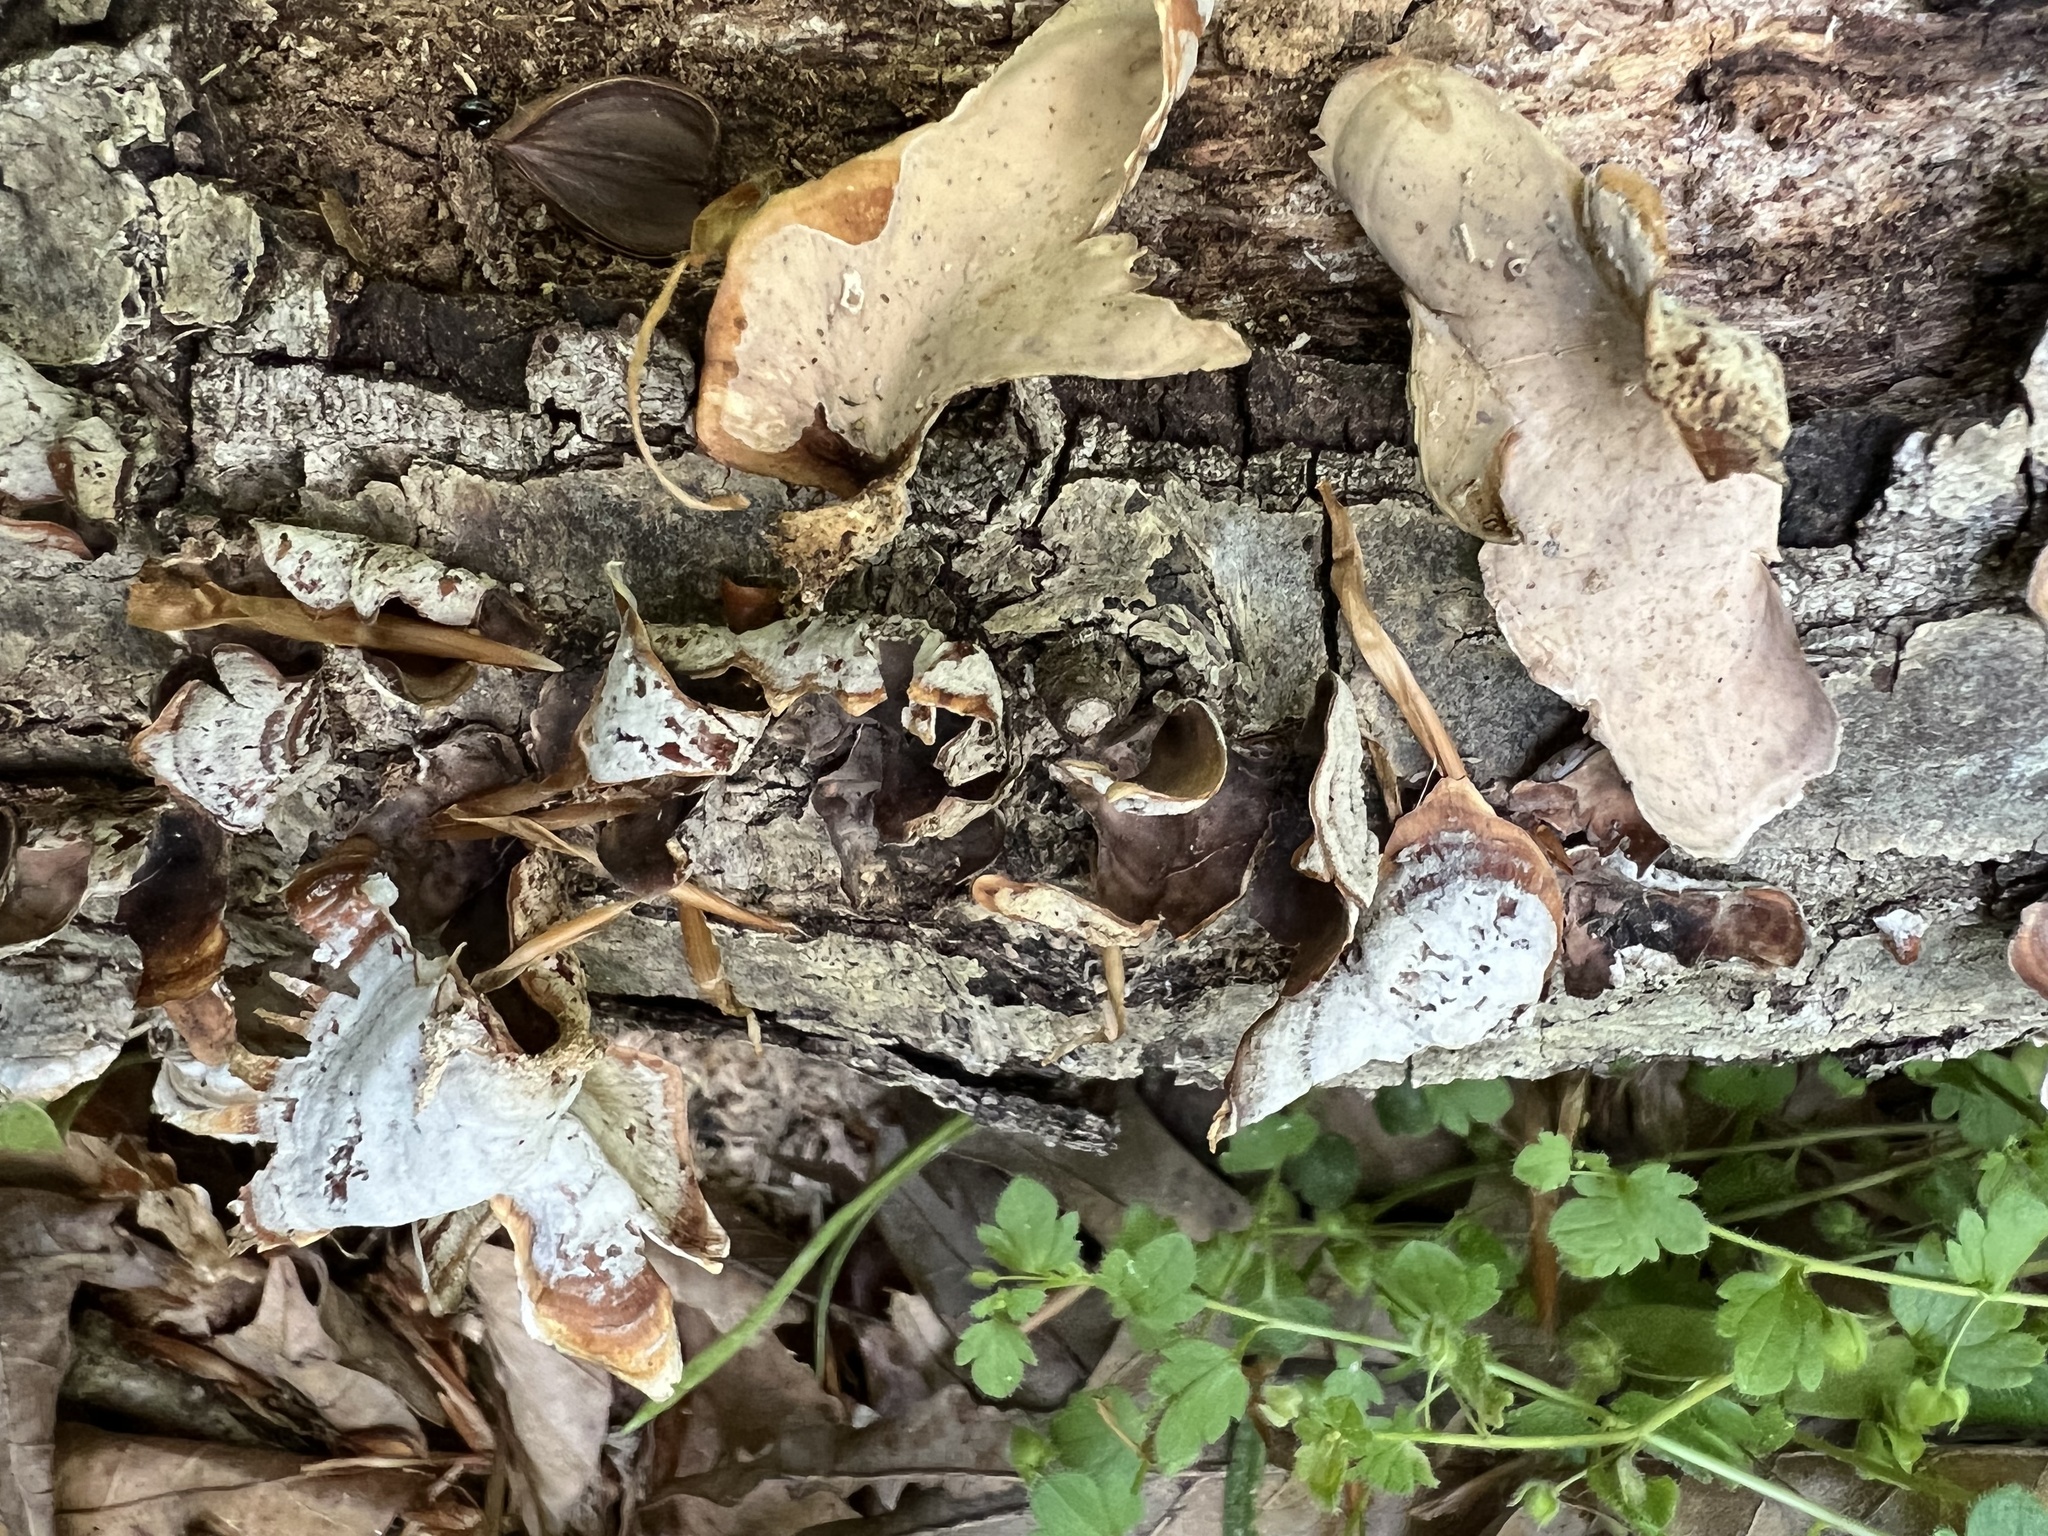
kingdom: Fungi
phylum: Basidiomycota
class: Agaricomycetes
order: Russulales
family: Stereaceae
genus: Stereum
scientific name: Stereum lobatum
